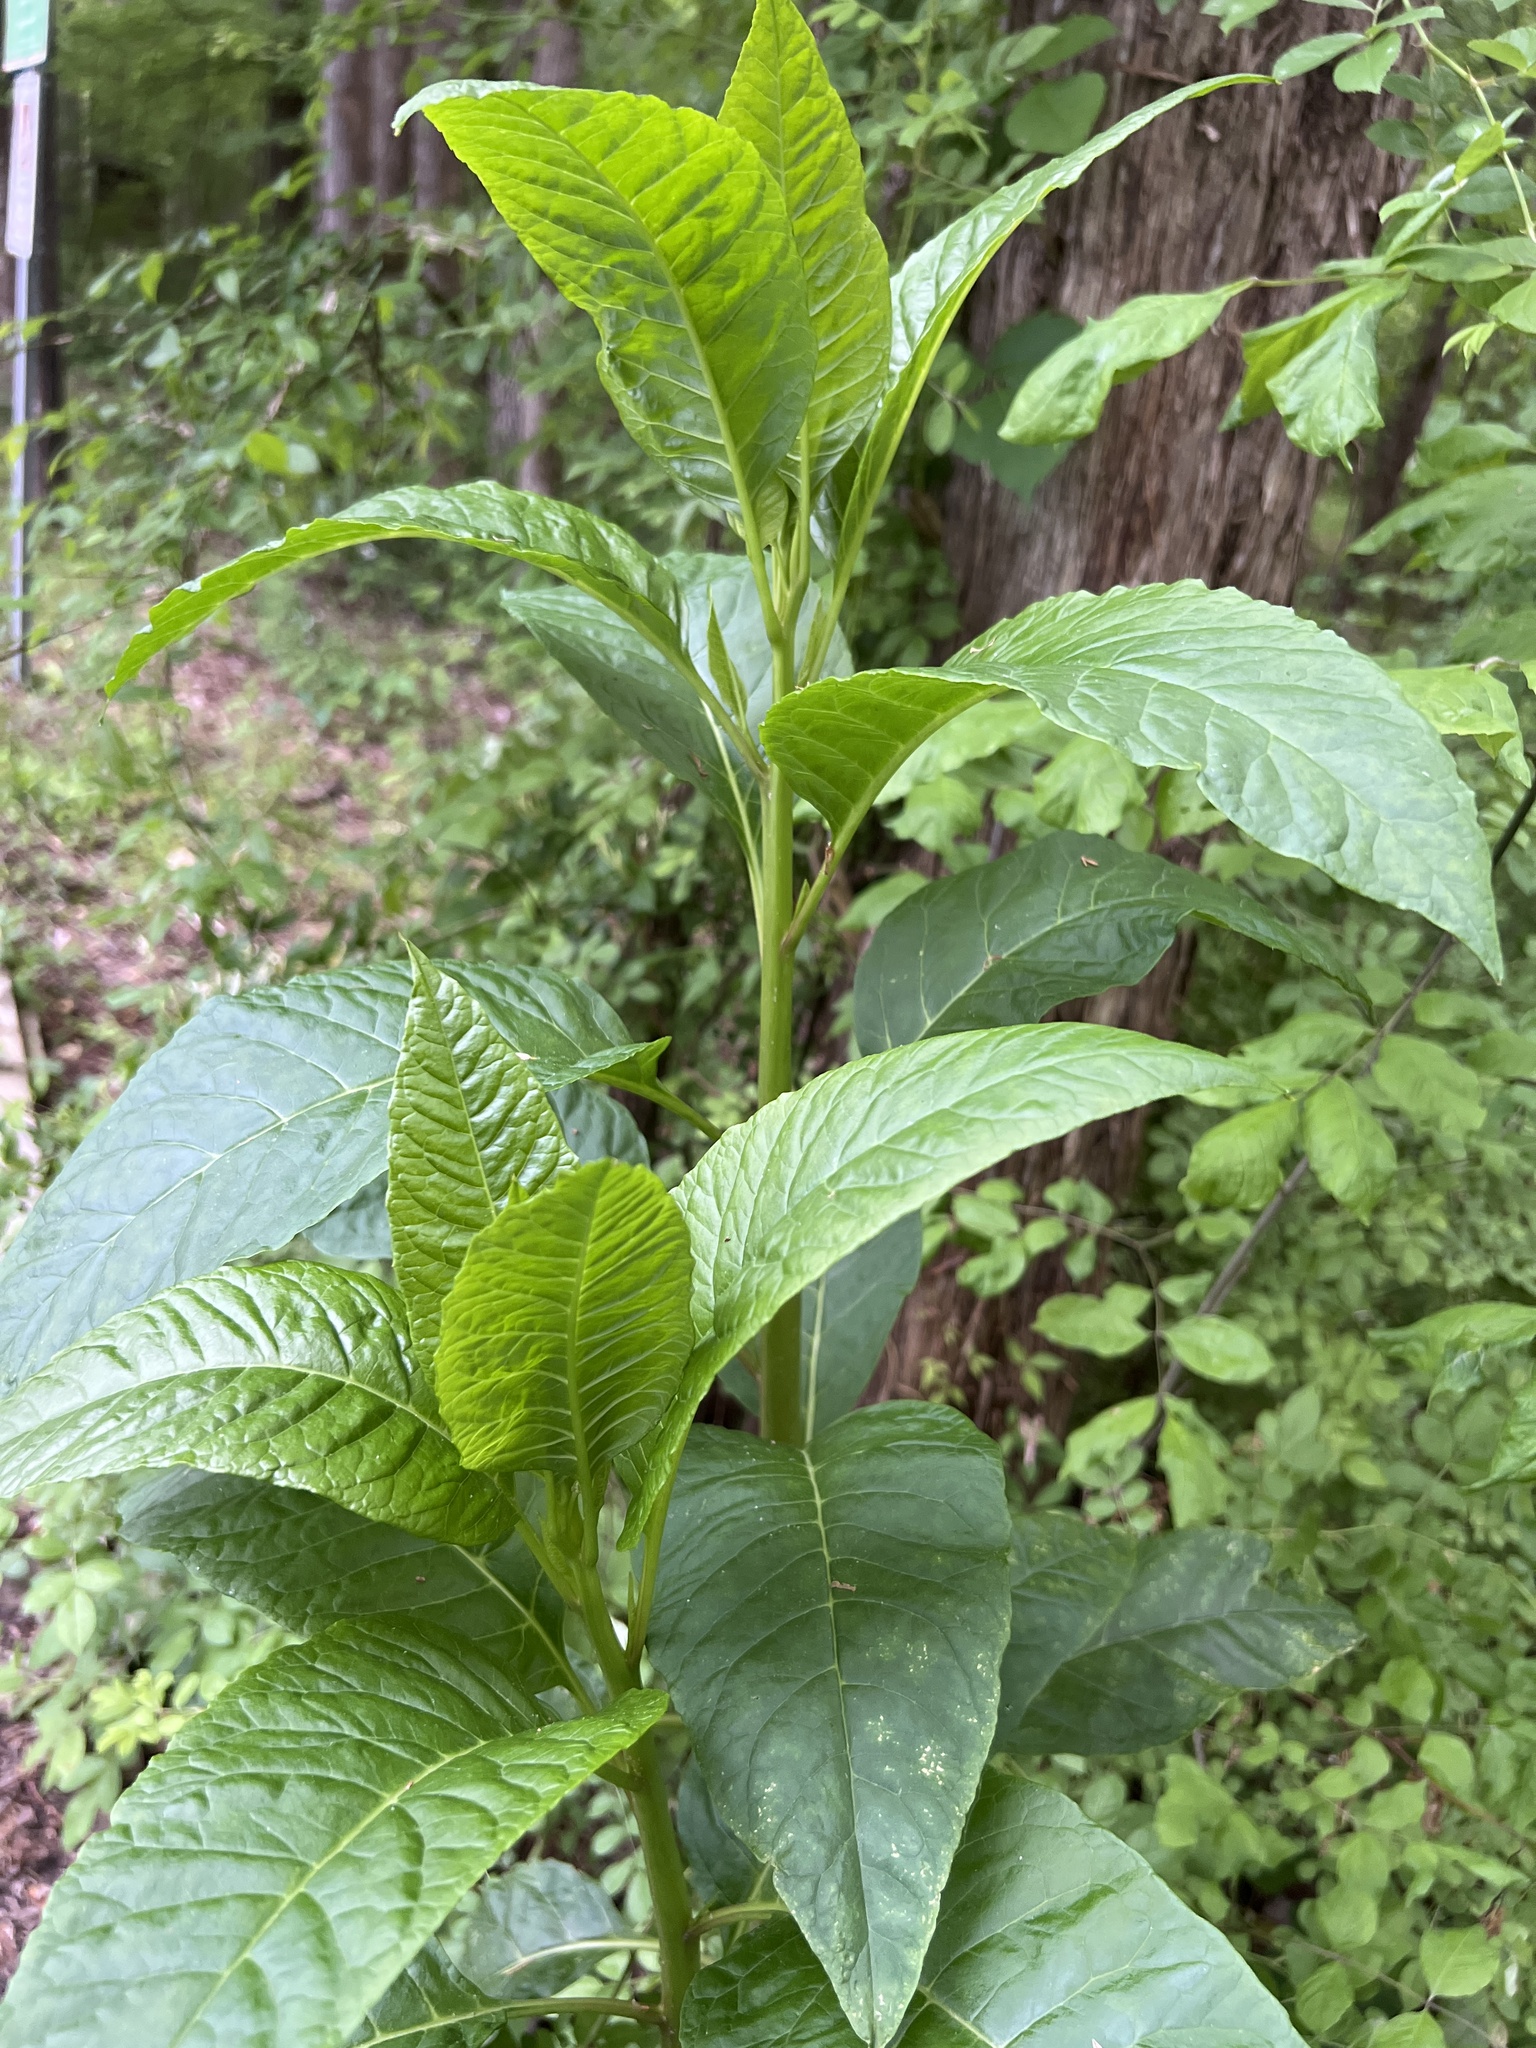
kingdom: Plantae
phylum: Tracheophyta
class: Magnoliopsida
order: Caryophyllales
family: Phytolaccaceae
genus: Phytolacca
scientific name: Phytolacca americana
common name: American pokeweed
